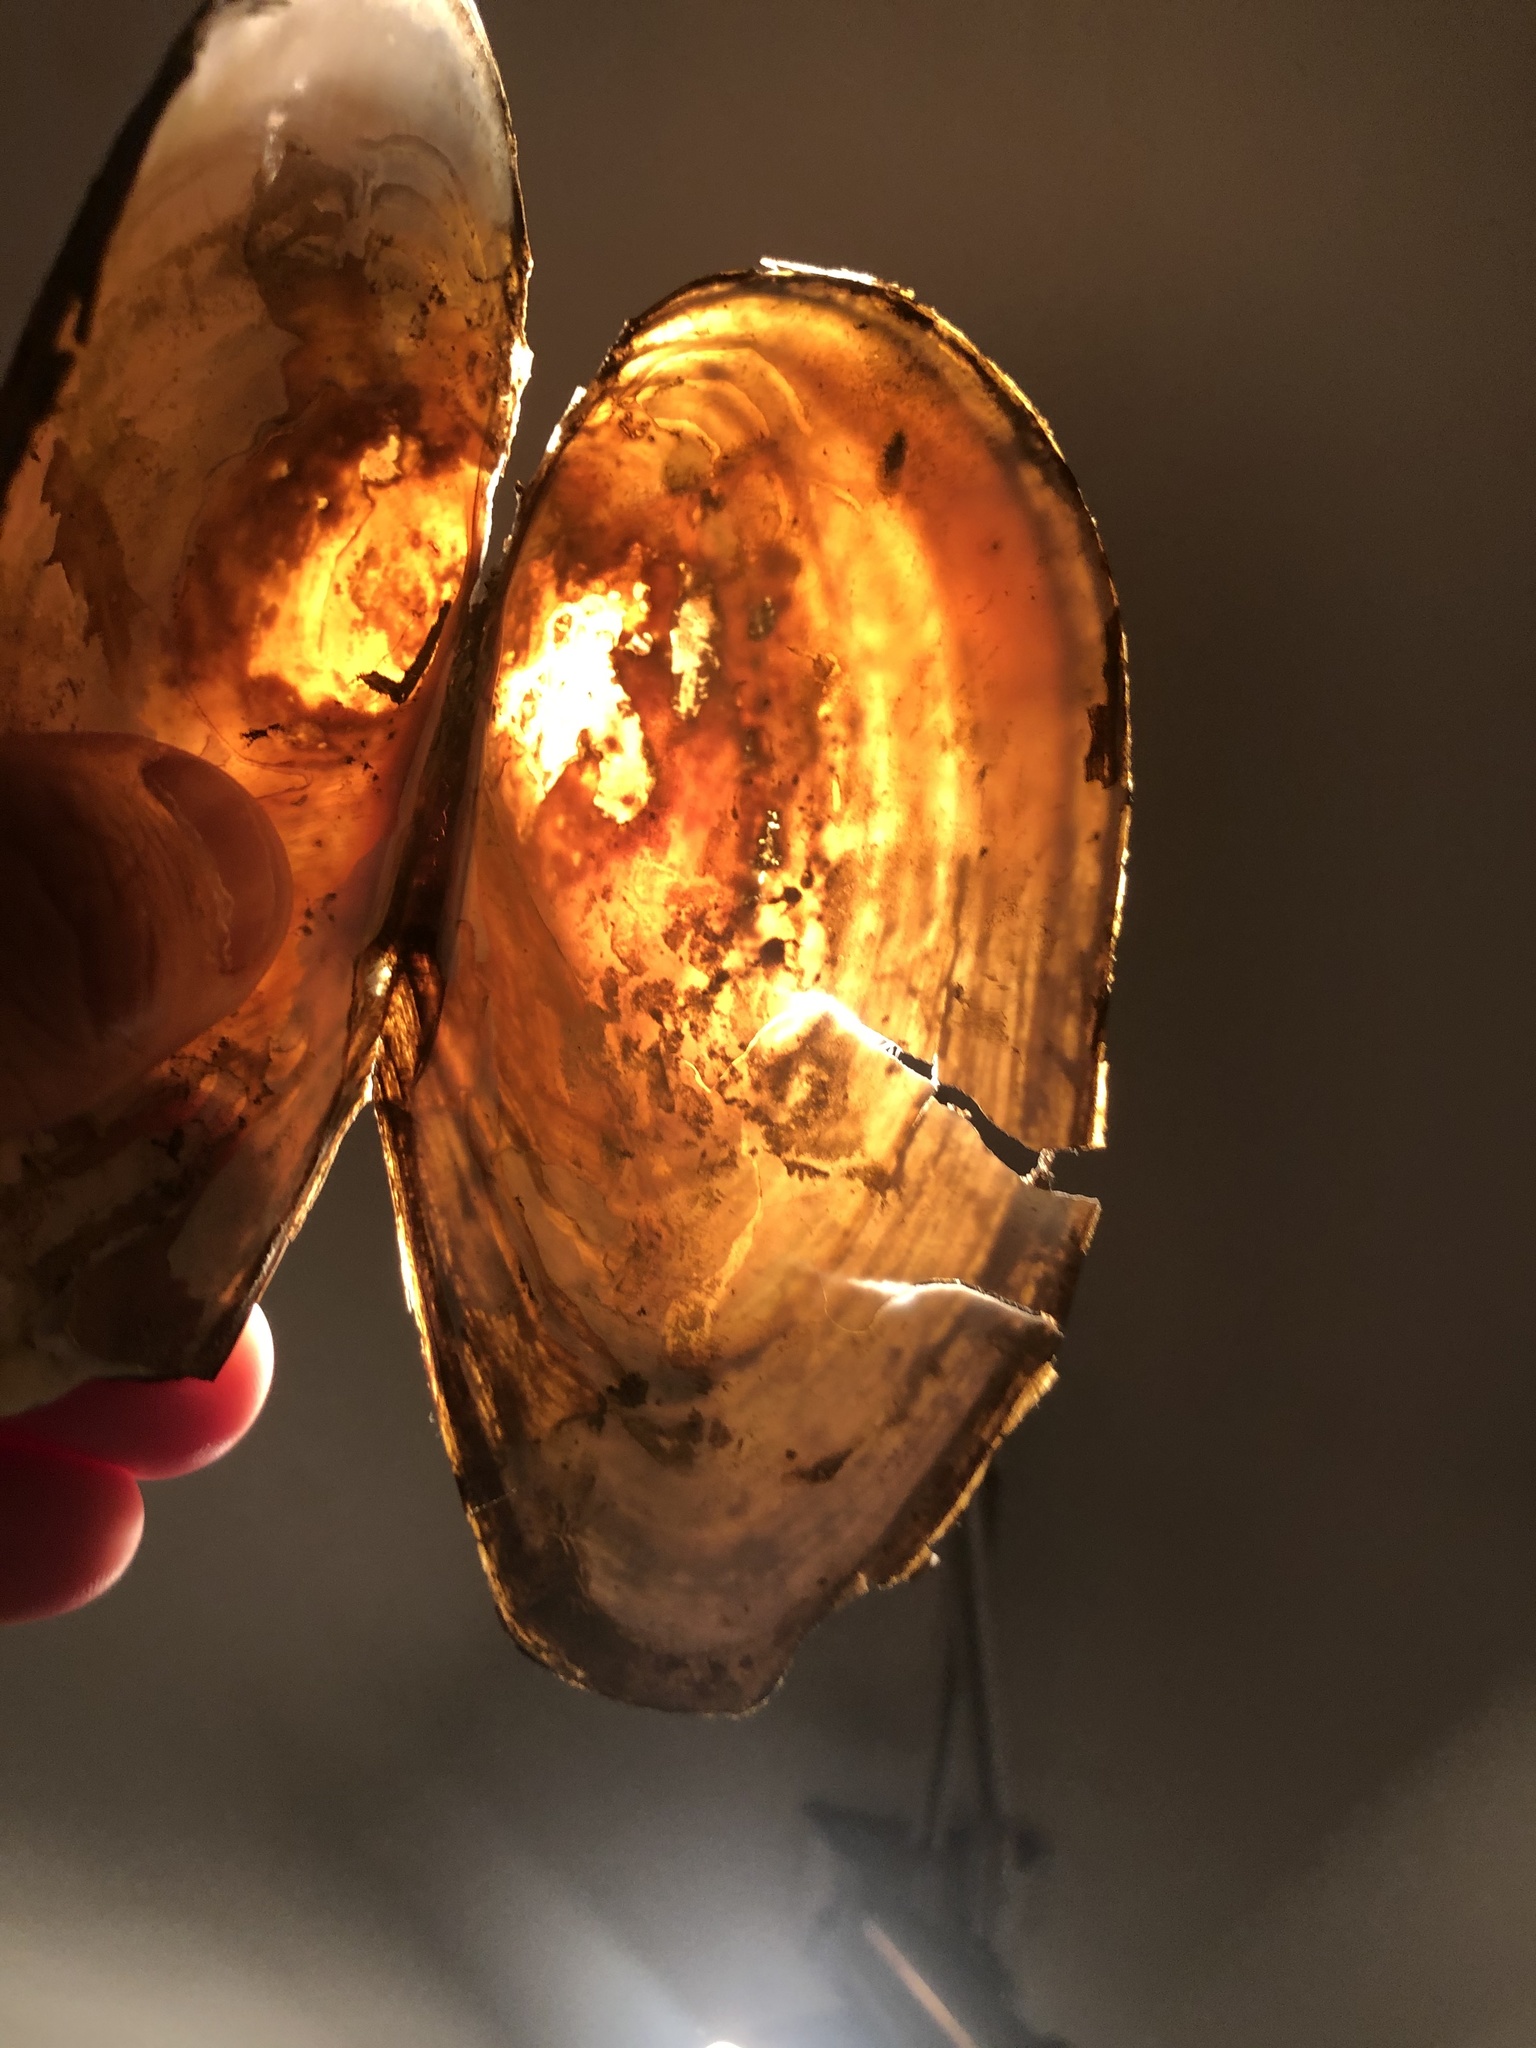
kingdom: Animalia
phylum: Mollusca
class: Bivalvia
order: Unionida
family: Unionidae
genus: Utterbackiana
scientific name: Utterbackiana implicata
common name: Alewife floater
